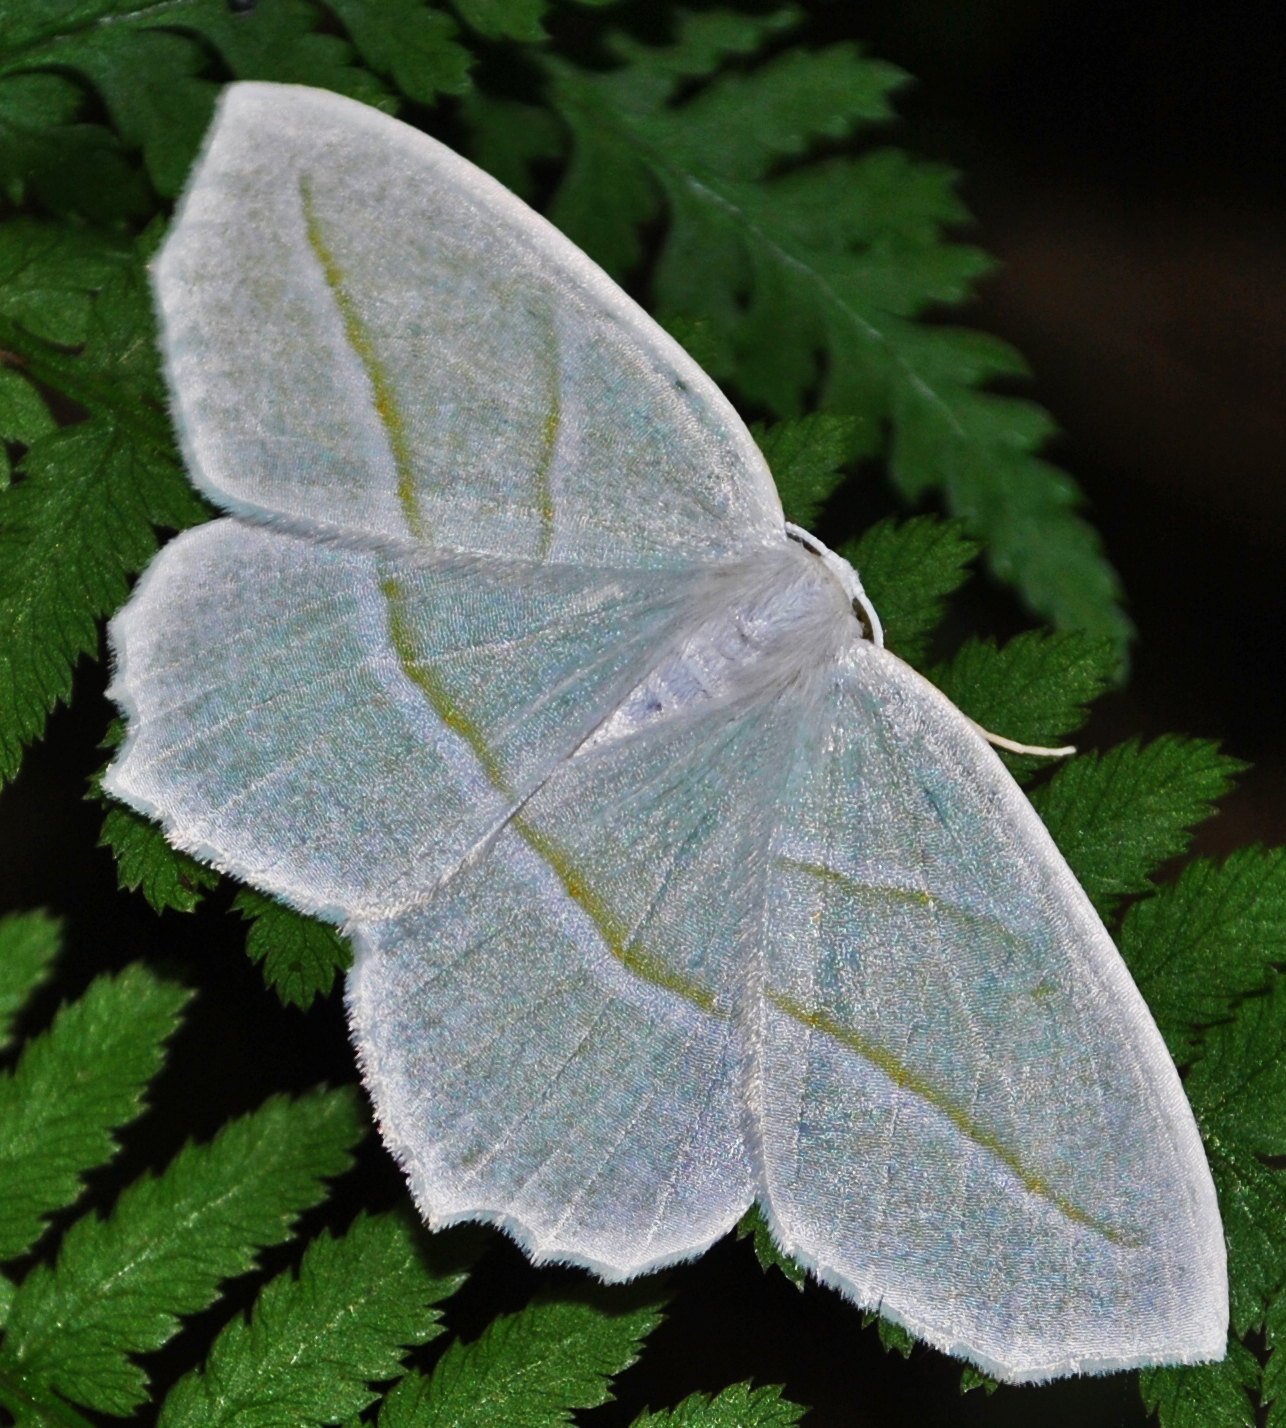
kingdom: Animalia
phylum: Arthropoda
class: Insecta
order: Lepidoptera
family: Geometridae
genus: Campaea
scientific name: Campaea perlata
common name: Fringed looper
